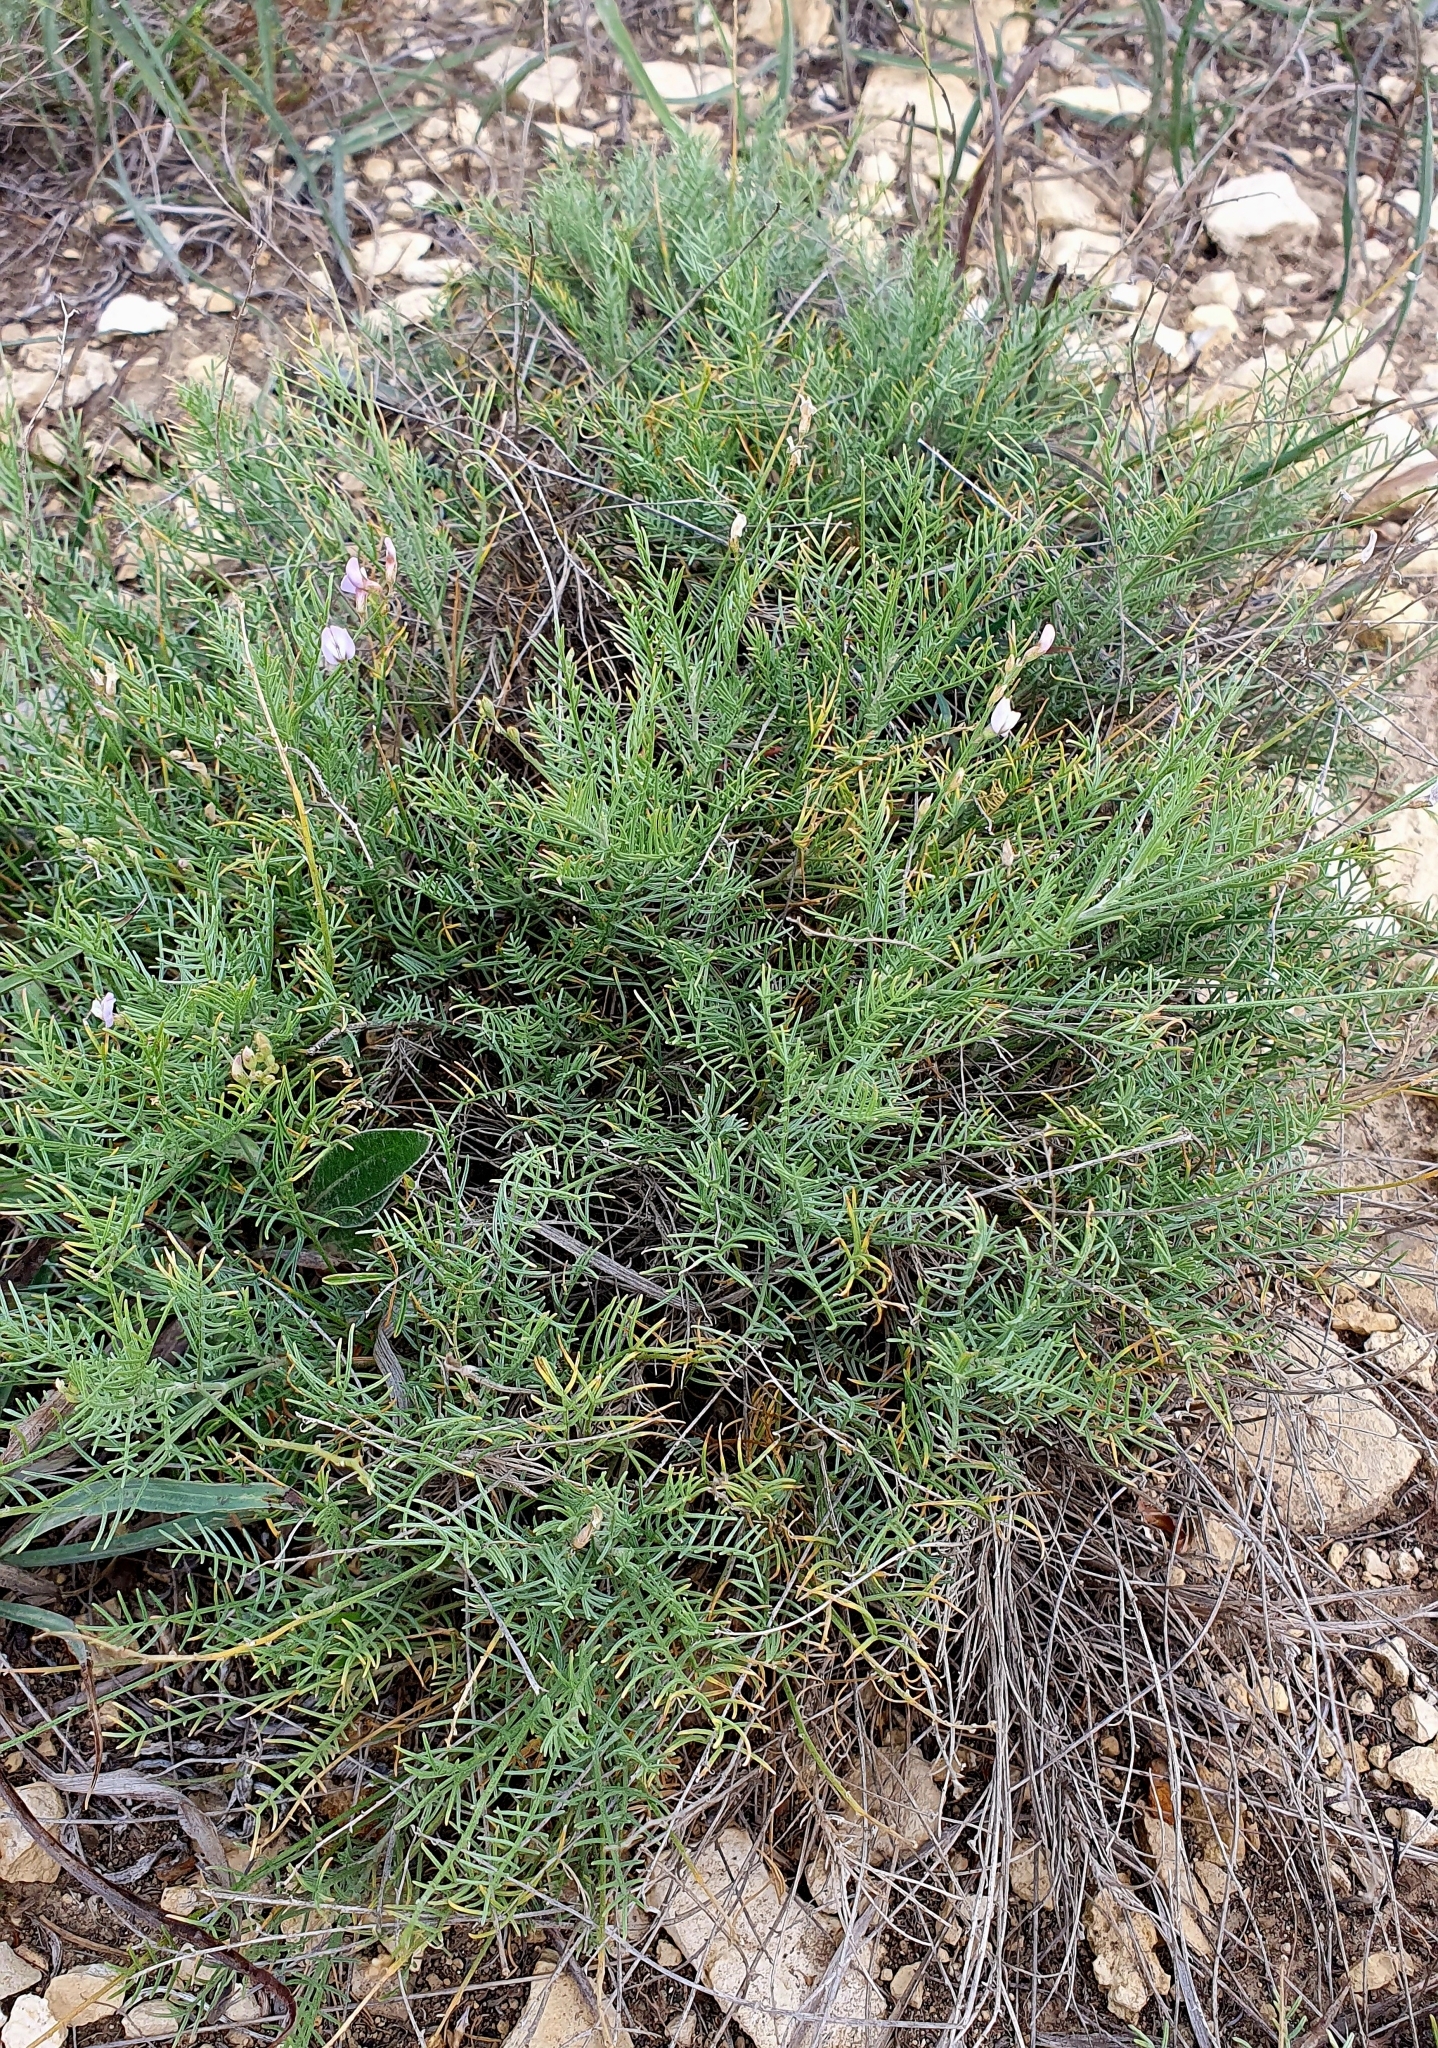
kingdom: Plantae
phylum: Tracheophyta
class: Magnoliopsida
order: Fabales
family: Fabaceae
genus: Astragalus
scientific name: Astragalus
